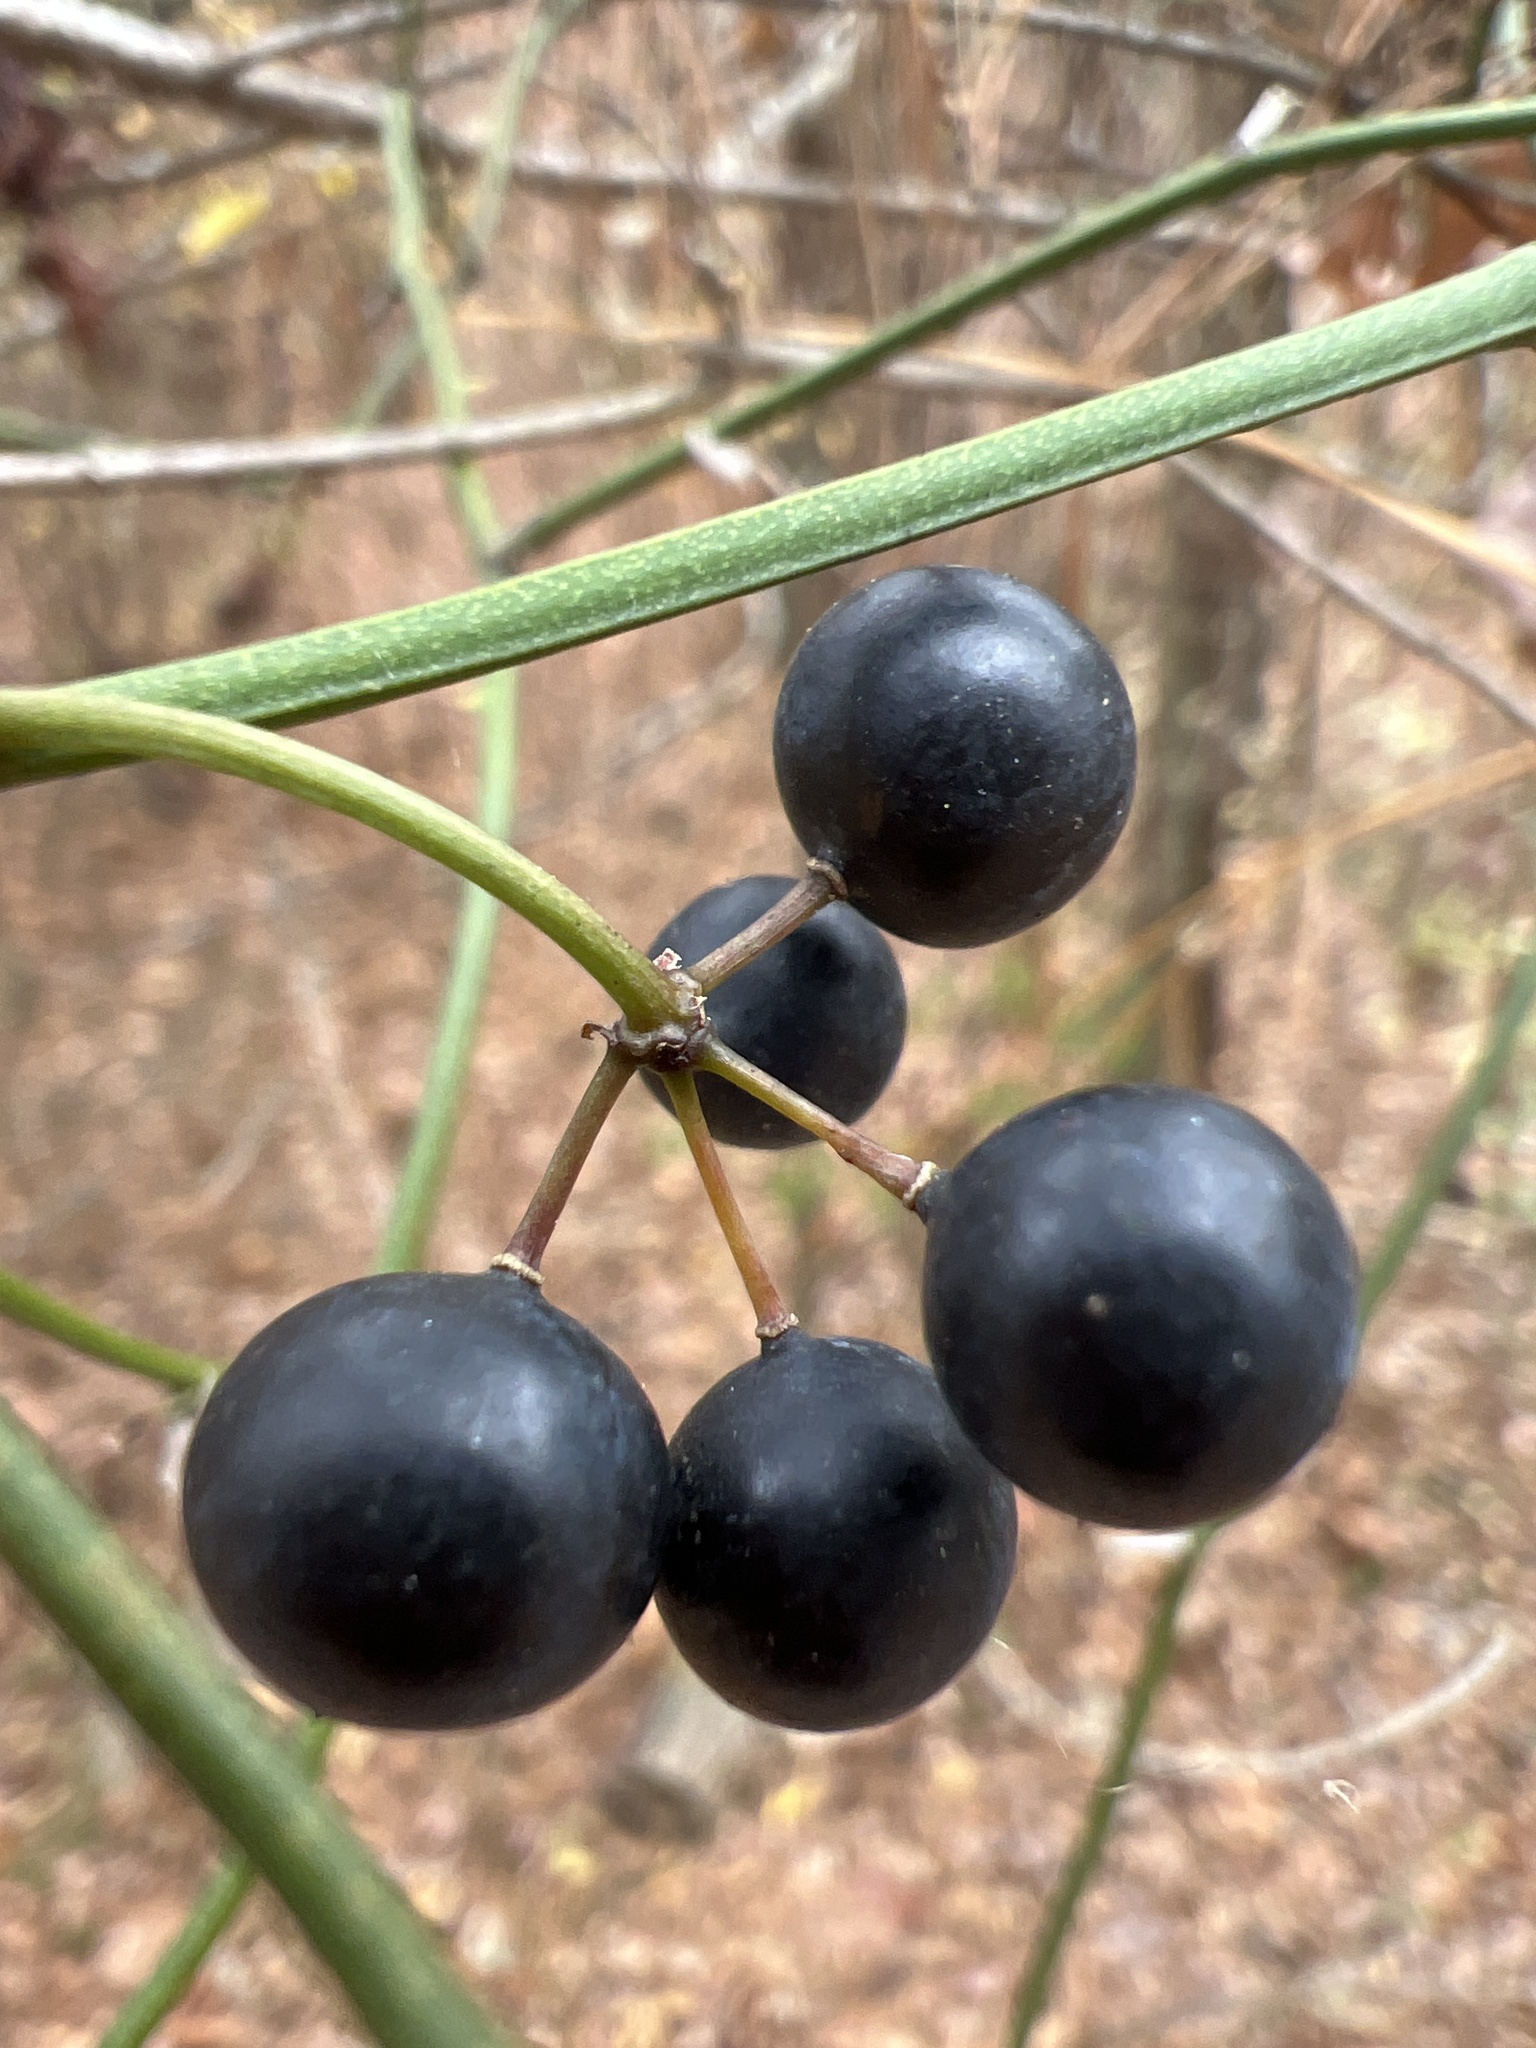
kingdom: Plantae
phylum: Tracheophyta
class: Liliopsida
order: Liliales
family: Smilacaceae
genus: Smilax
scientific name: Smilax rotundifolia
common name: Bullbriar
